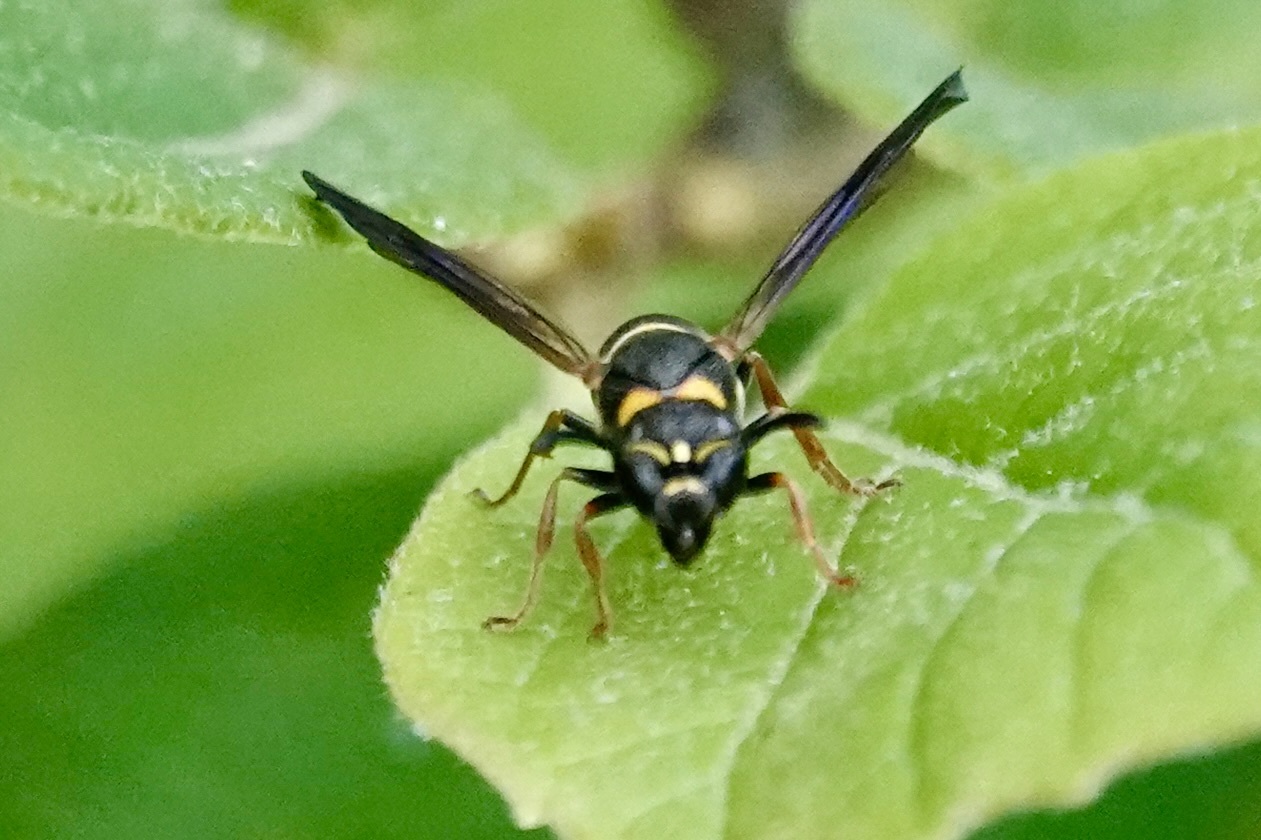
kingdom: Animalia
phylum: Arthropoda
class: Insecta
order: Hymenoptera
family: Eumenidae
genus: Parancistrocerus
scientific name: Parancistrocerus perennis
